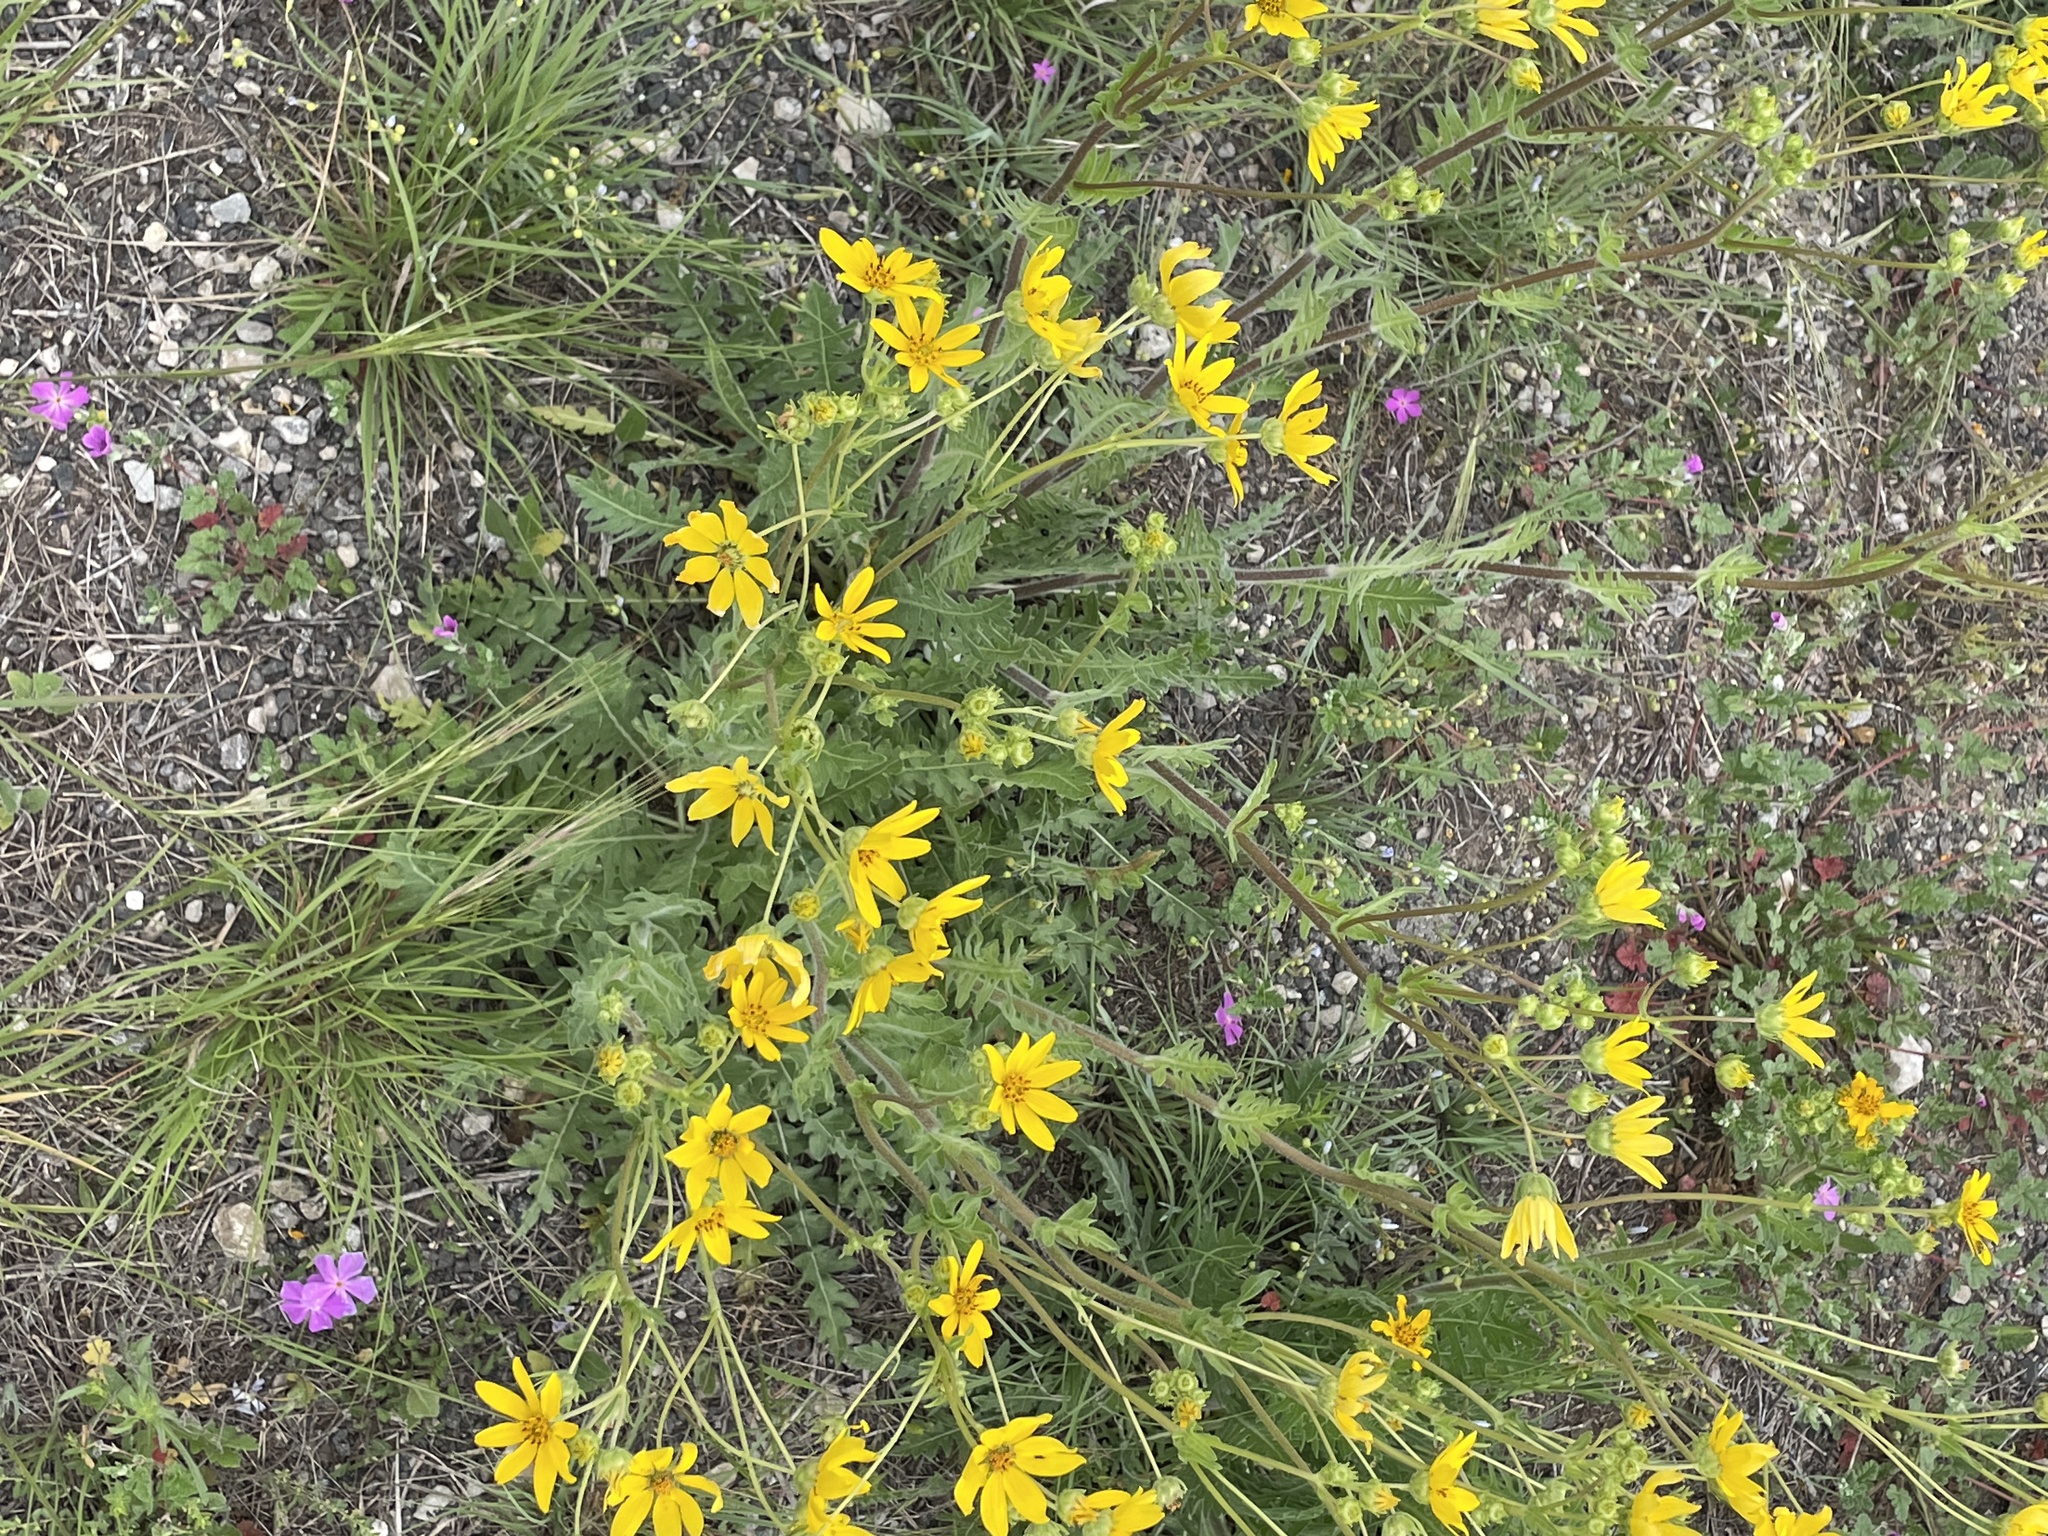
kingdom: Plantae
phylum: Tracheophyta
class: Magnoliopsida
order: Asterales
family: Asteraceae
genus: Engelmannia
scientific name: Engelmannia peristenia
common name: Engelmann's daisy
